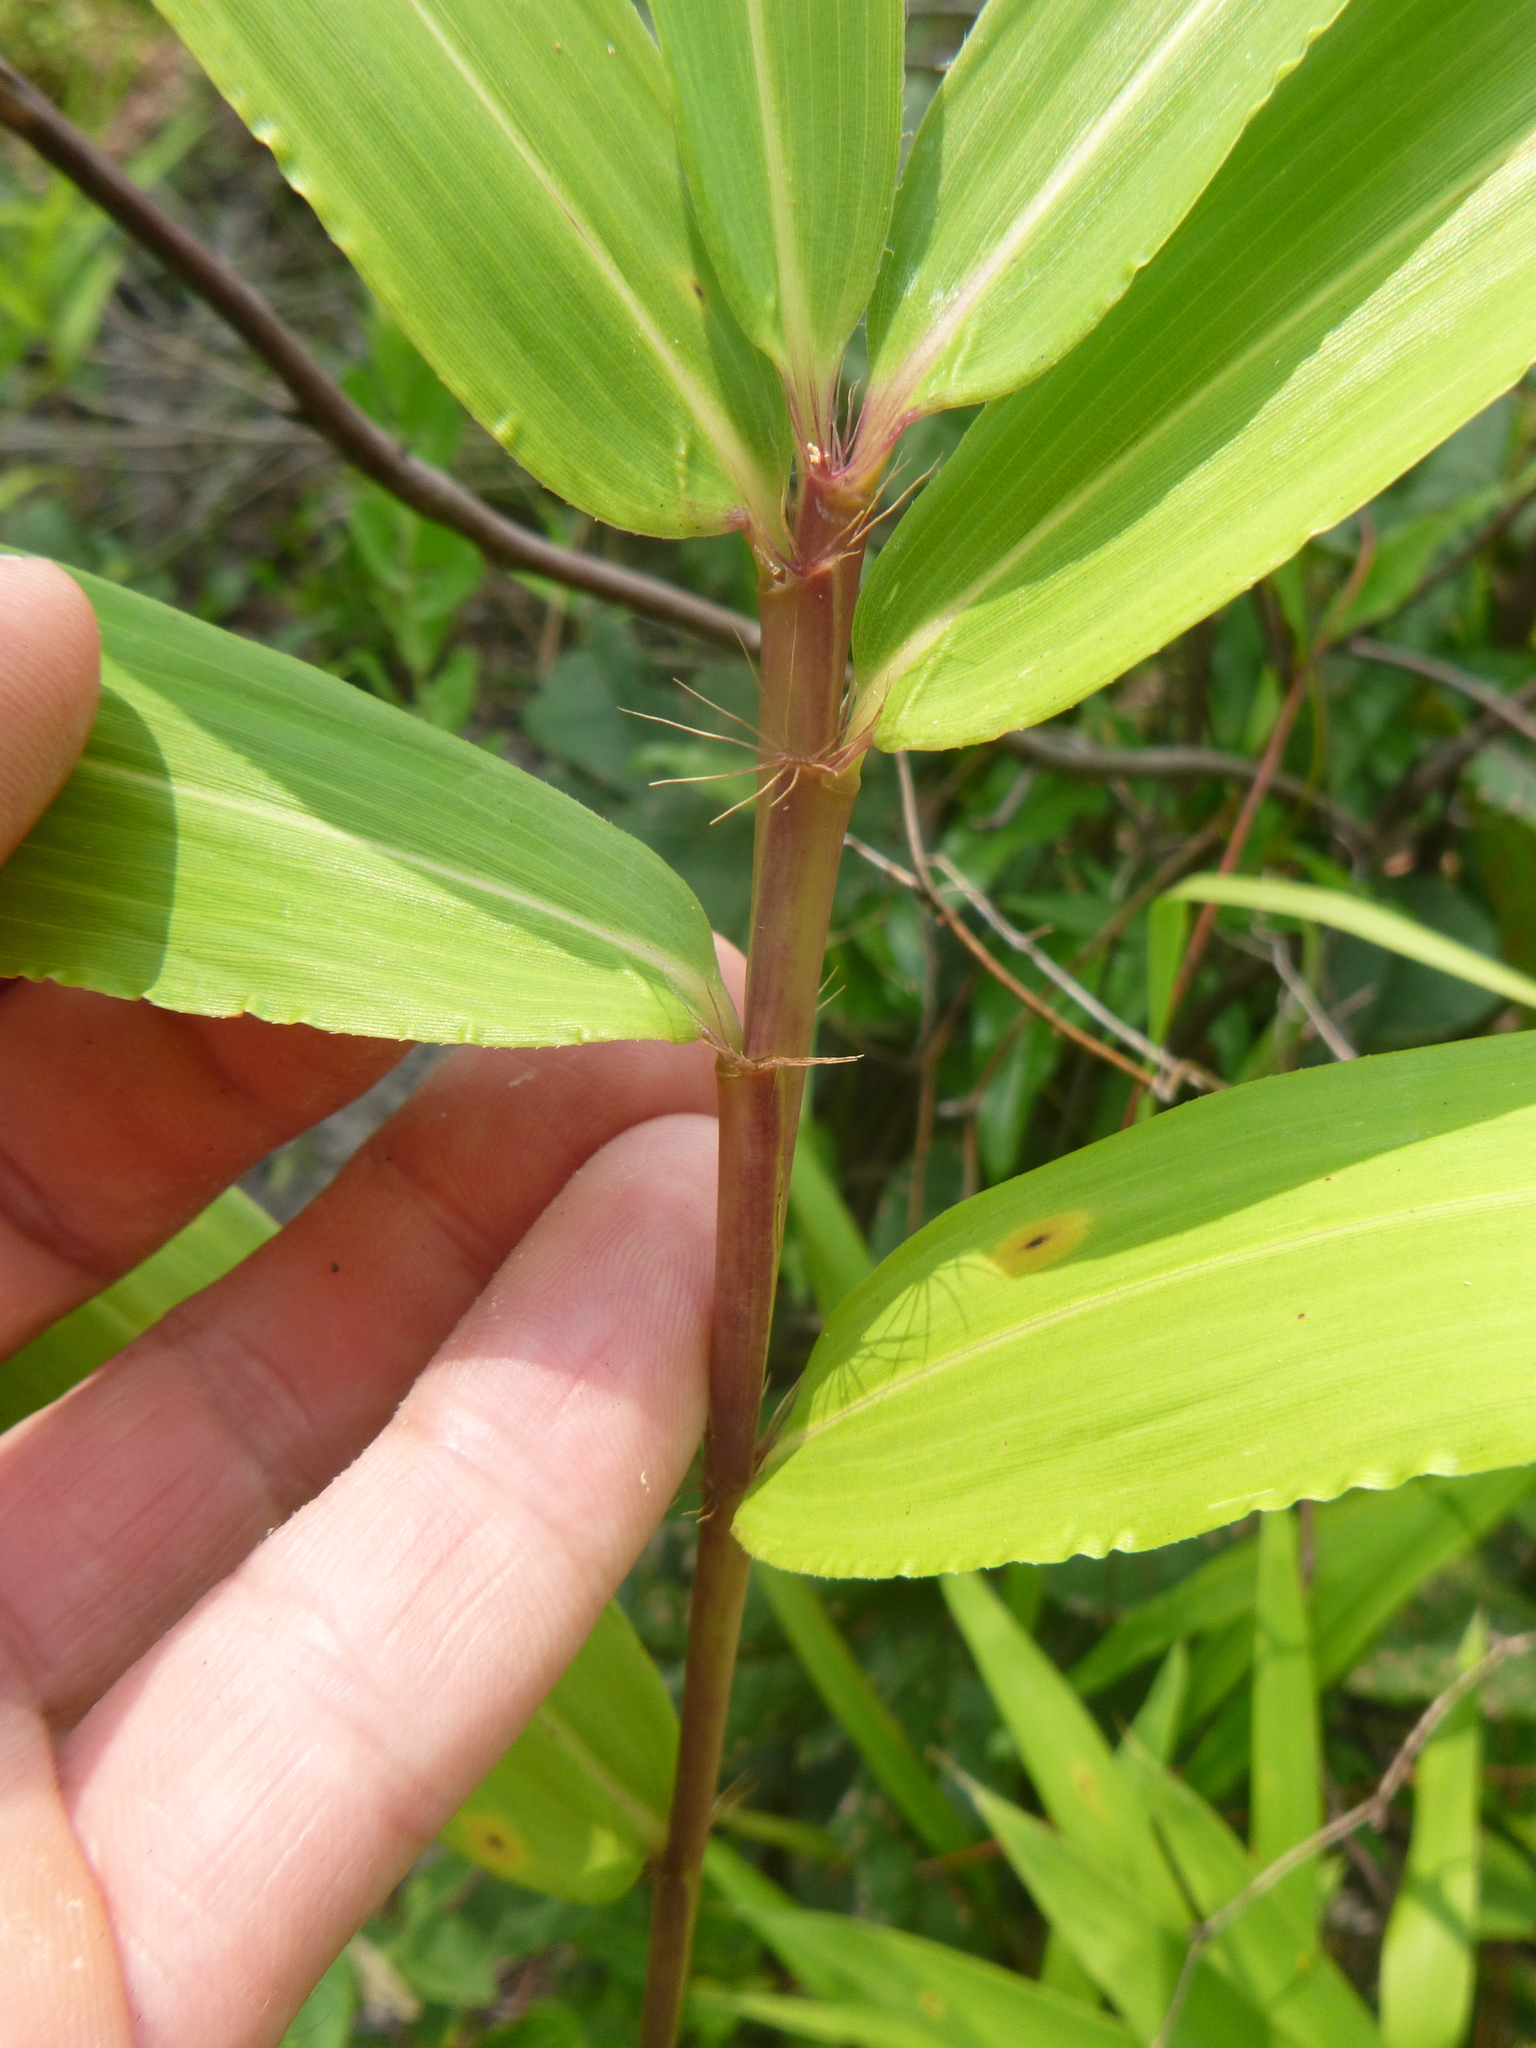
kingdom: Plantae
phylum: Tracheophyta
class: Liliopsida
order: Poales
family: Poaceae
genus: Arundinaria
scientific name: Arundinaria tecta
